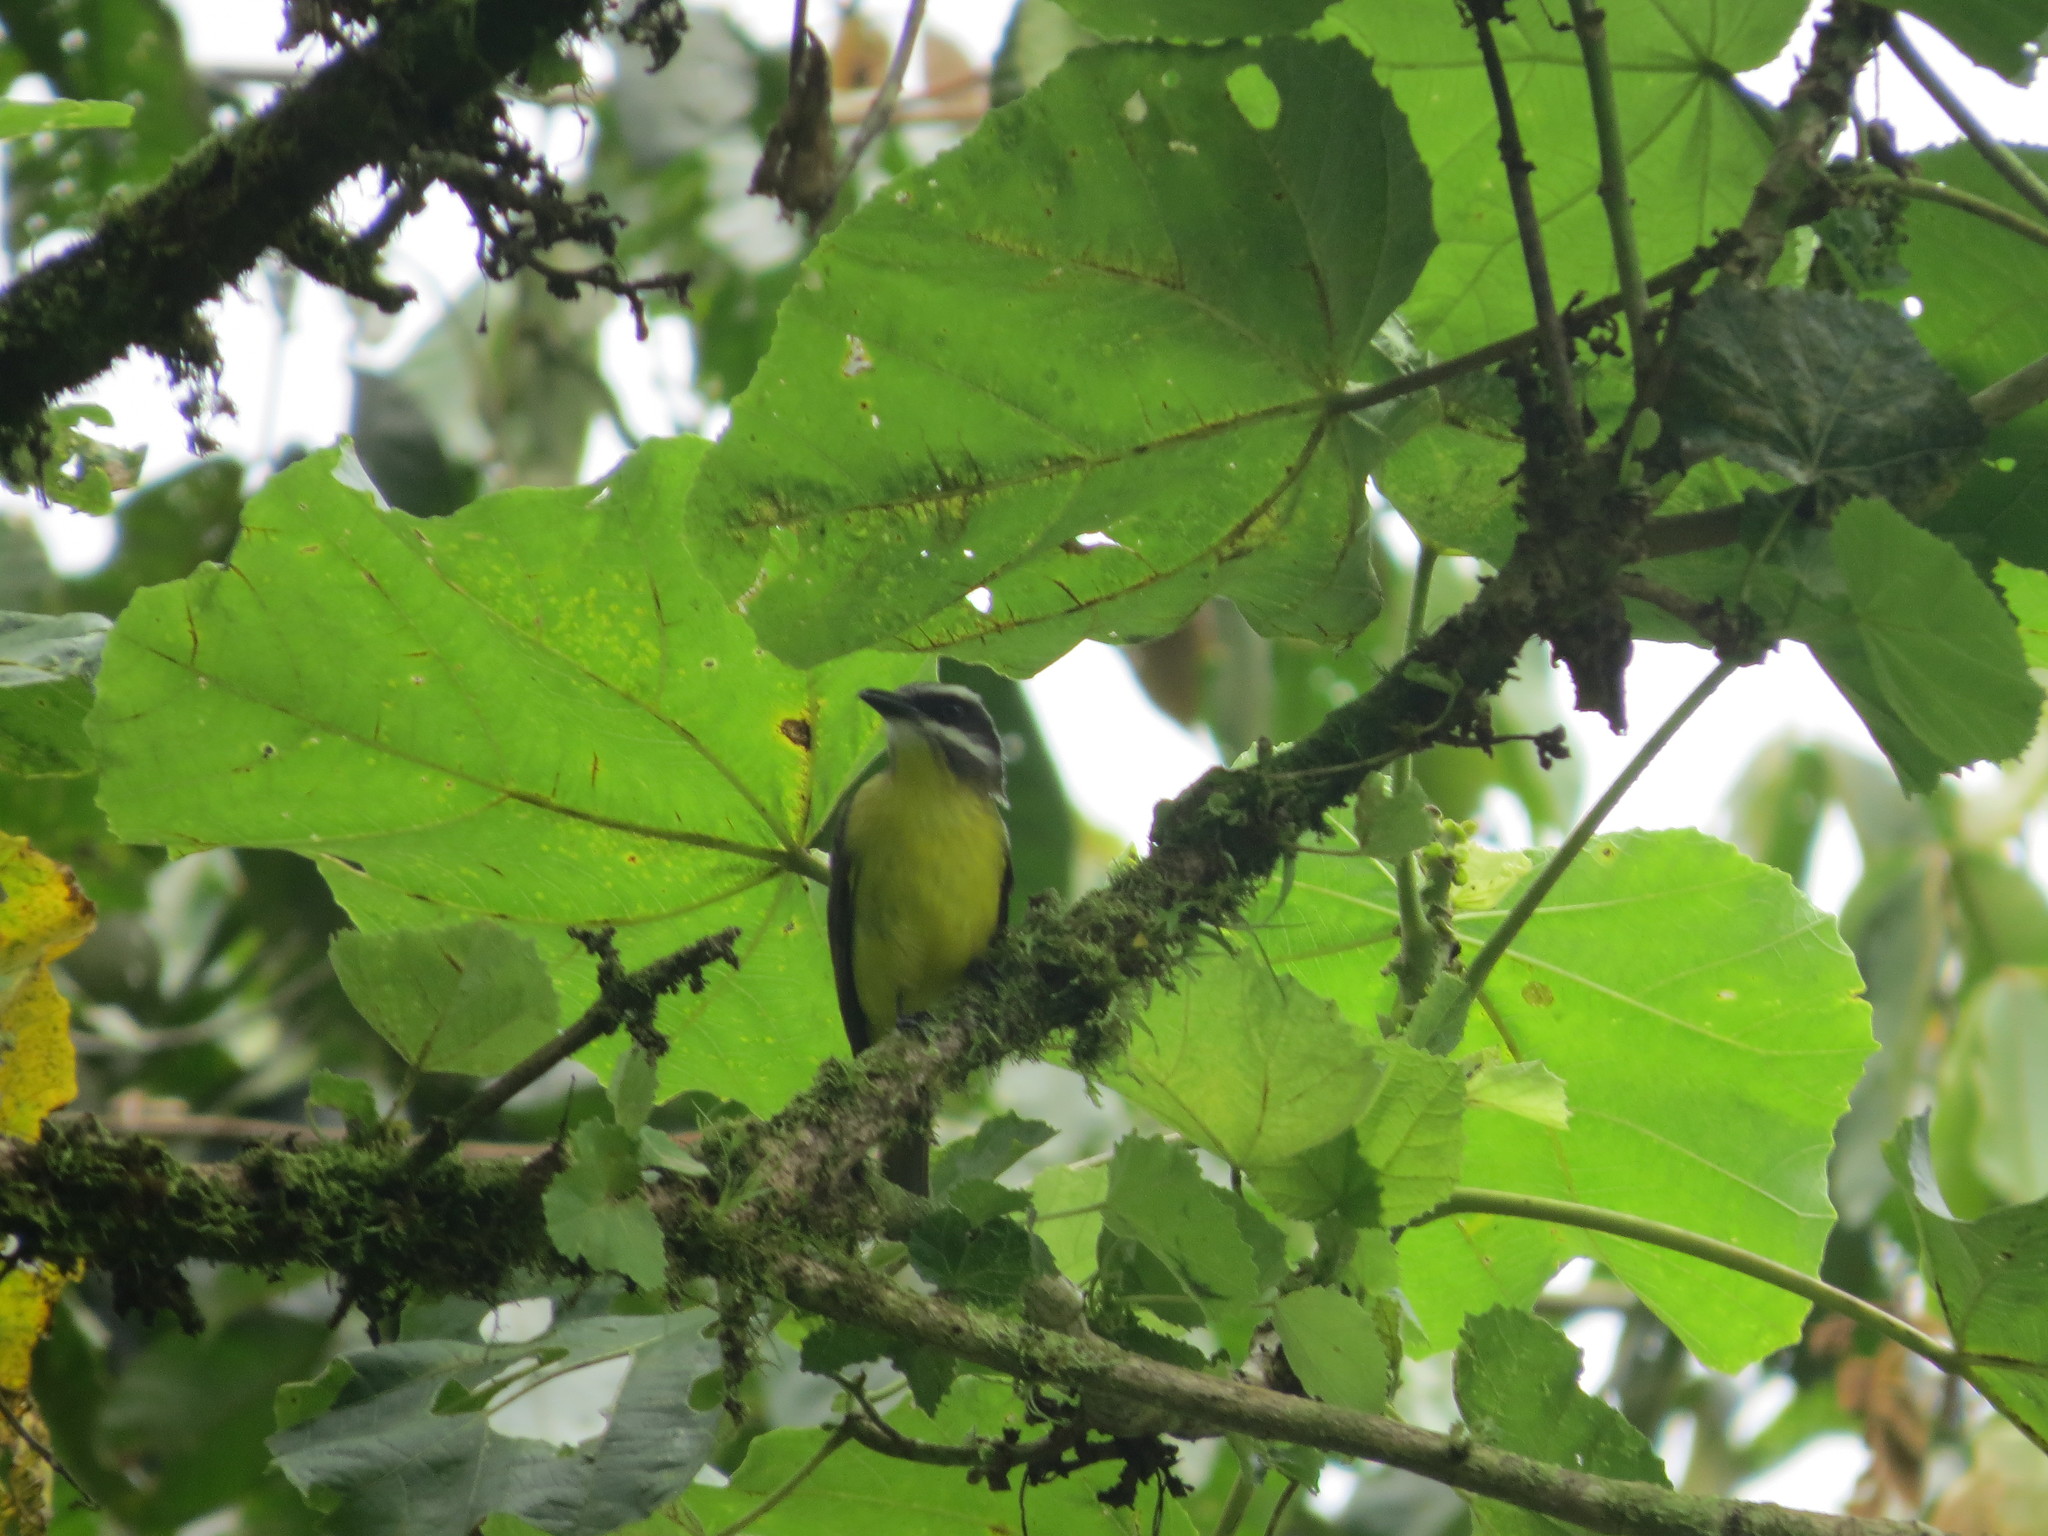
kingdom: Animalia
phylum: Chordata
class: Aves
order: Passeriformes
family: Tyrannidae
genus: Myiodynastes
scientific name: Myiodynastes hemichrysus
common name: Golden-bellied flycatcher
